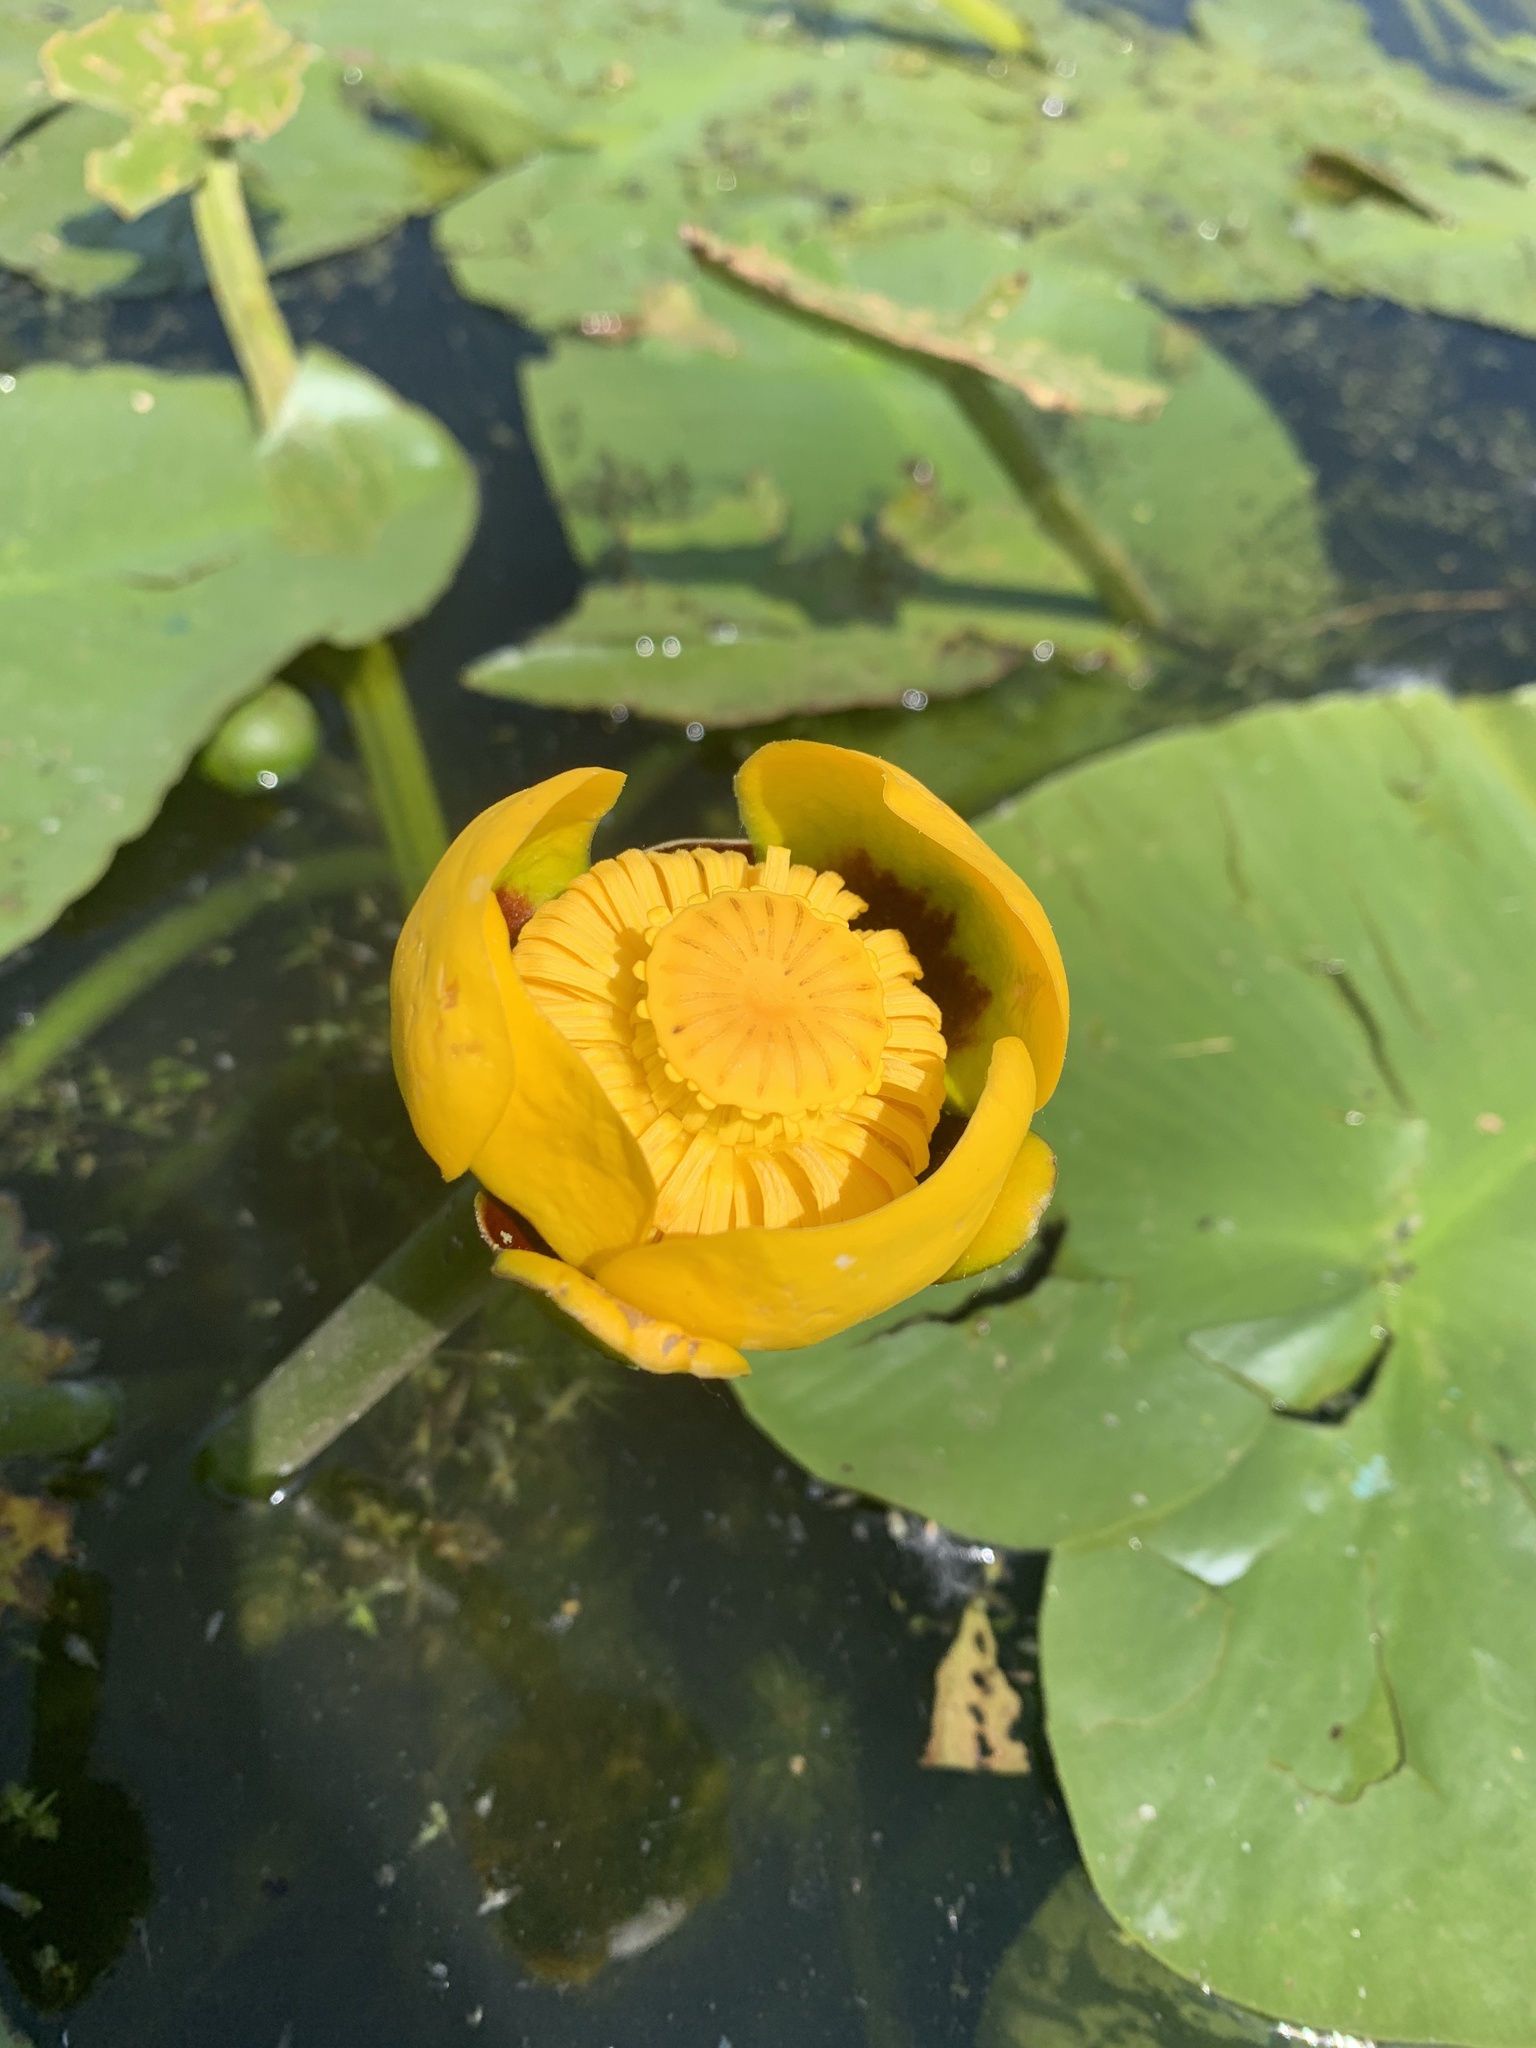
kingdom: Plantae
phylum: Tracheophyta
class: Magnoliopsida
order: Nymphaeales
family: Nymphaeaceae
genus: Nuphar
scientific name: Nuphar variegata
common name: Beaver-root
